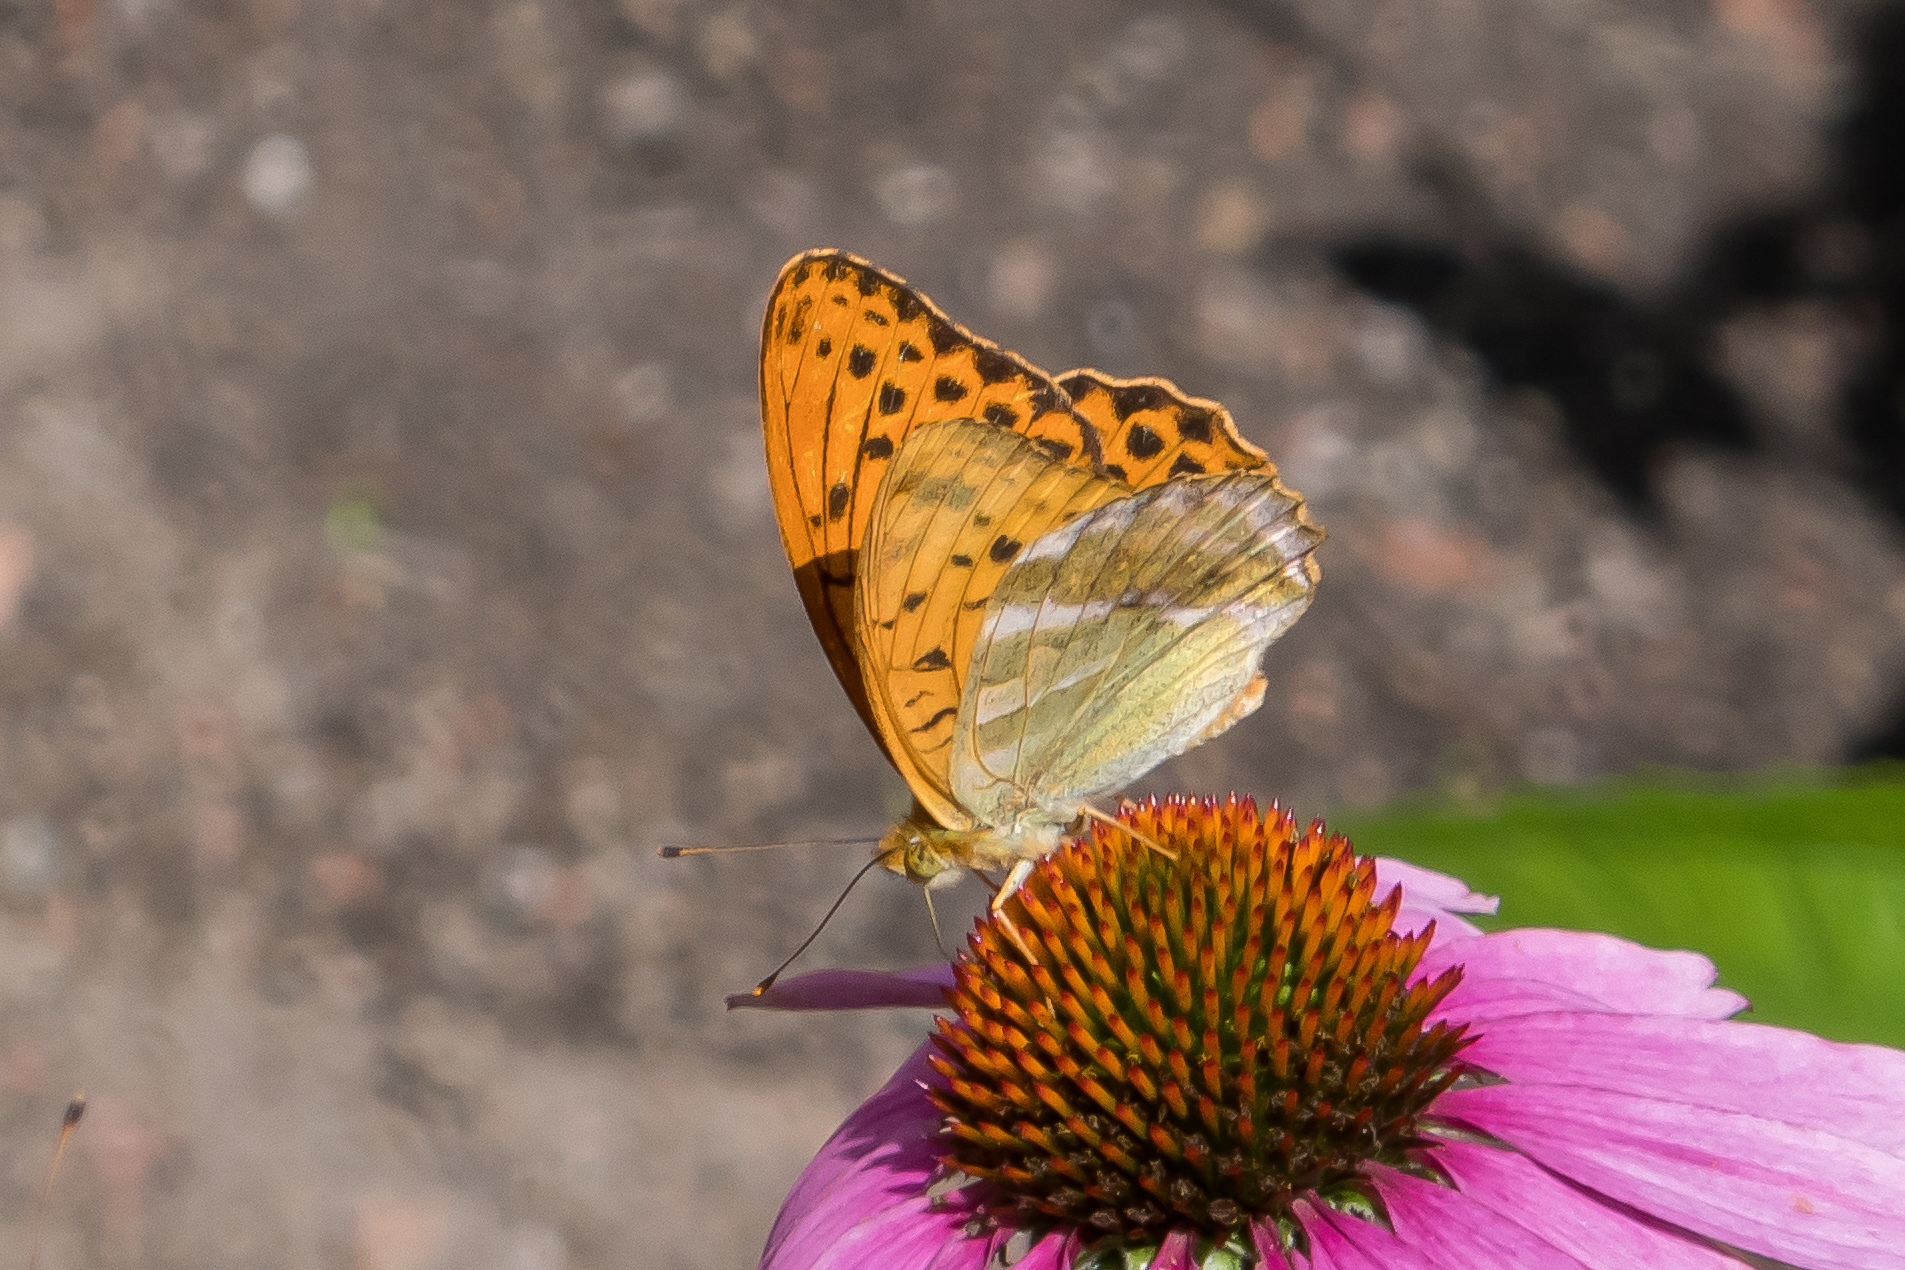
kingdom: Animalia
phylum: Arthropoda
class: Insecta
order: Lepidoptera
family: Nymphalidae
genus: Argynnis
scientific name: Argynnis paphia
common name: Silver-washed fritillary
